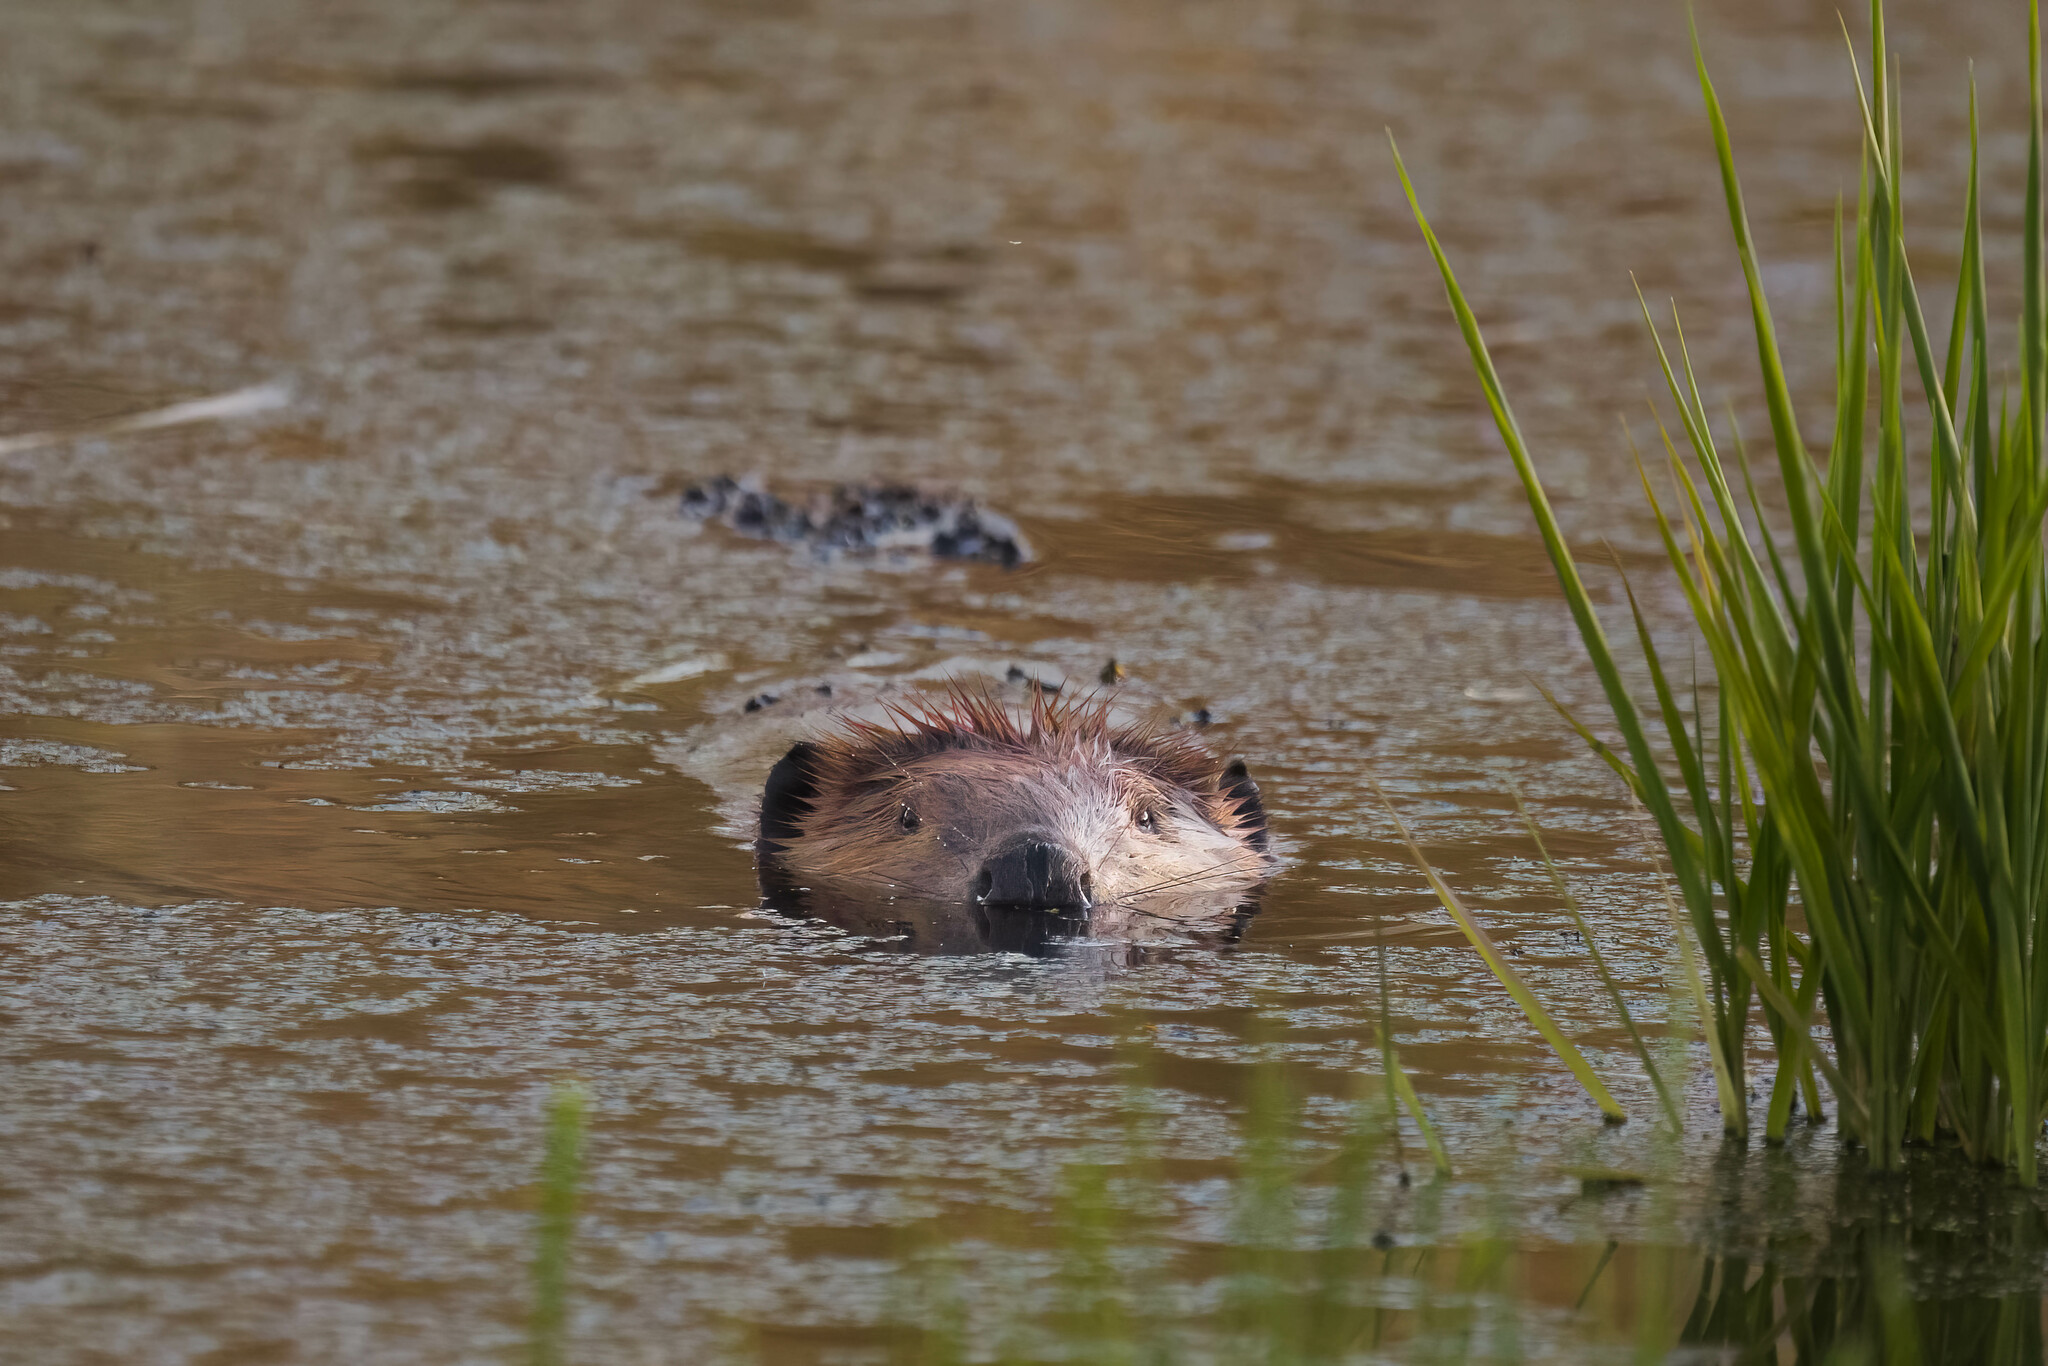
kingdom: Animalia
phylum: Chordata
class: Mammalia
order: Rodentia
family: Castoridae
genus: Castor
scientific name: Castor canadensis
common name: American beaver
